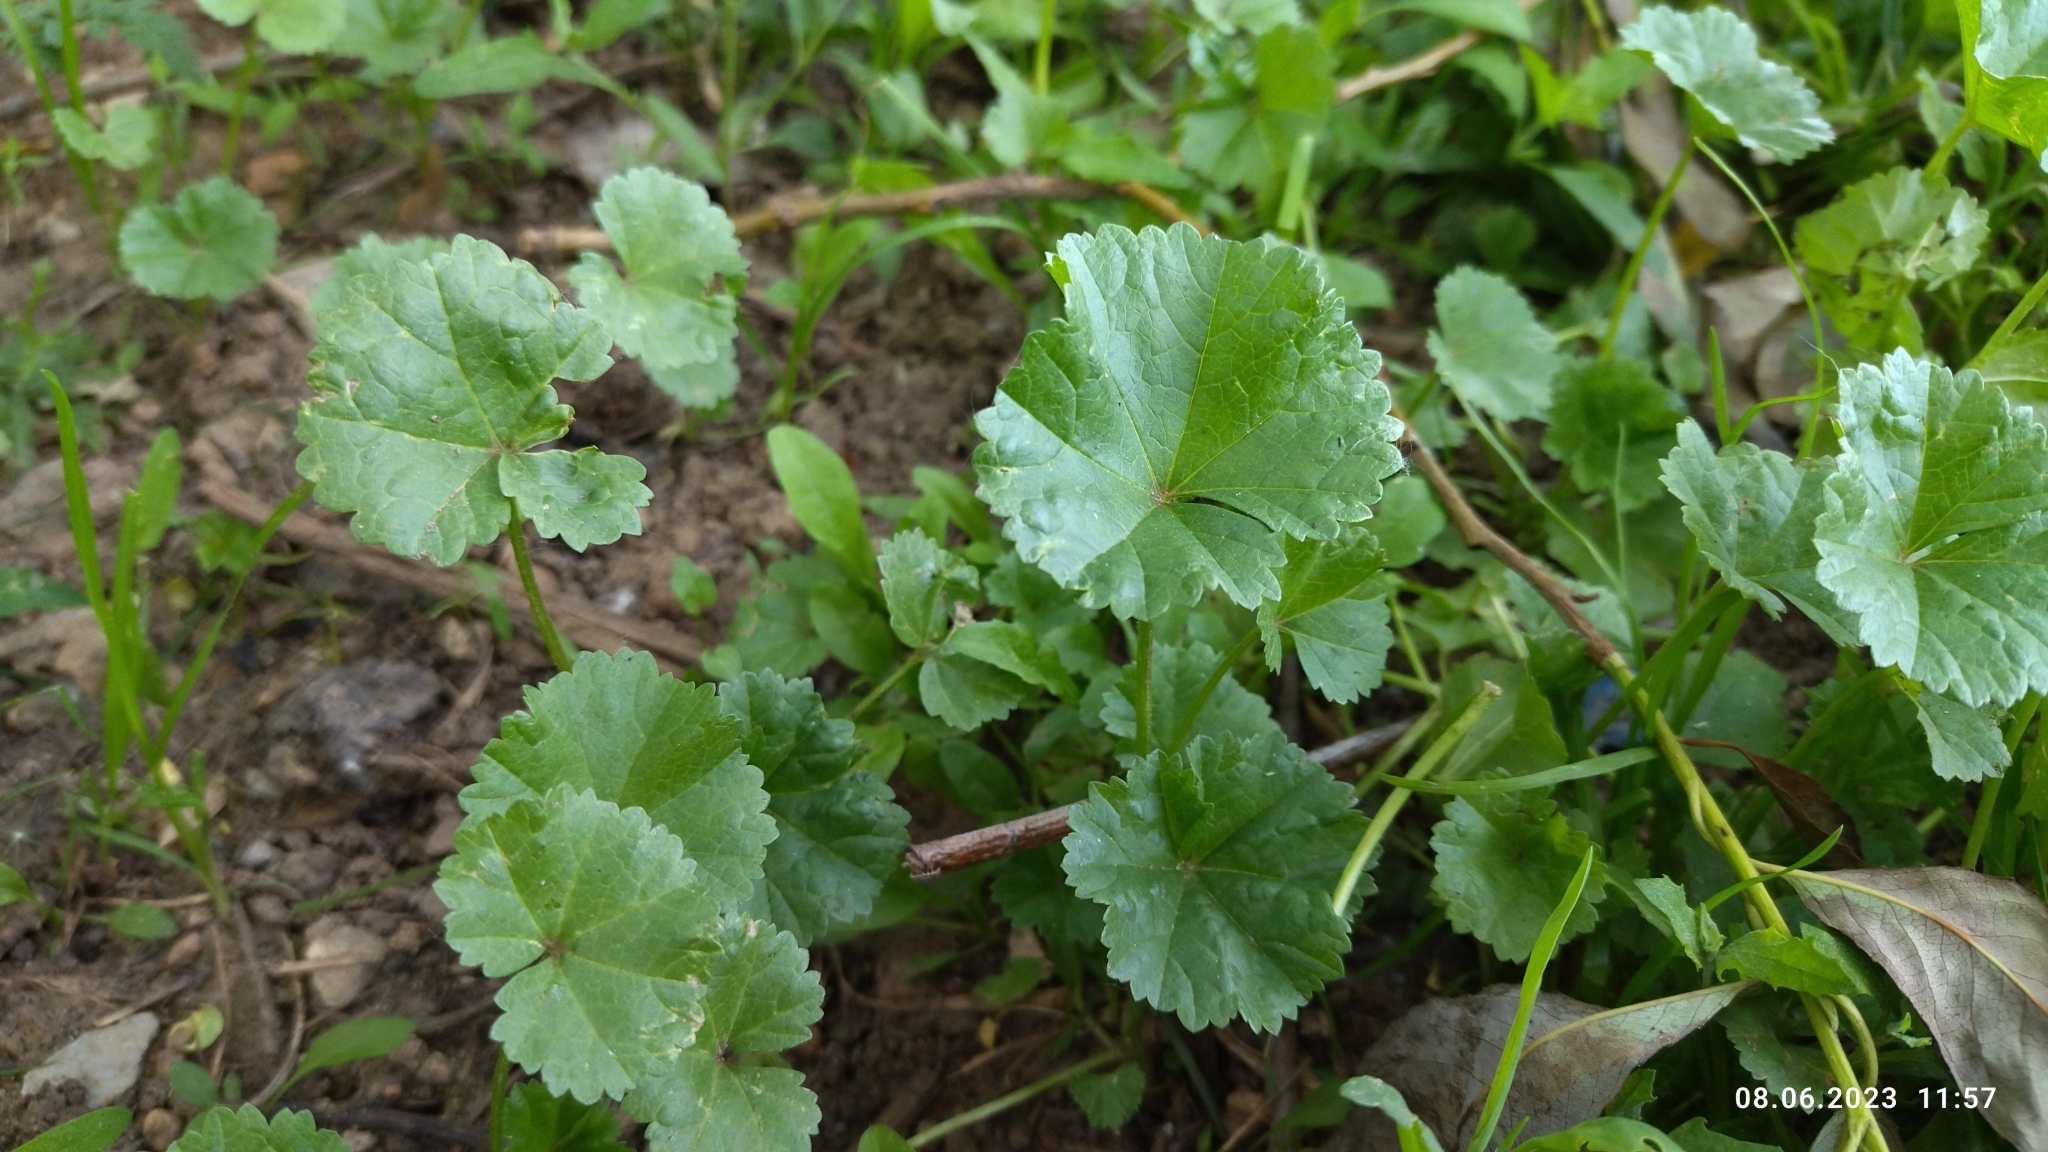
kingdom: Plantae
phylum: Tracheophyta
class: Magnoliopsida
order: Malvales
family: Malvaceae
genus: Malva
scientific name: Malva pusilla
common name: Small mallow
